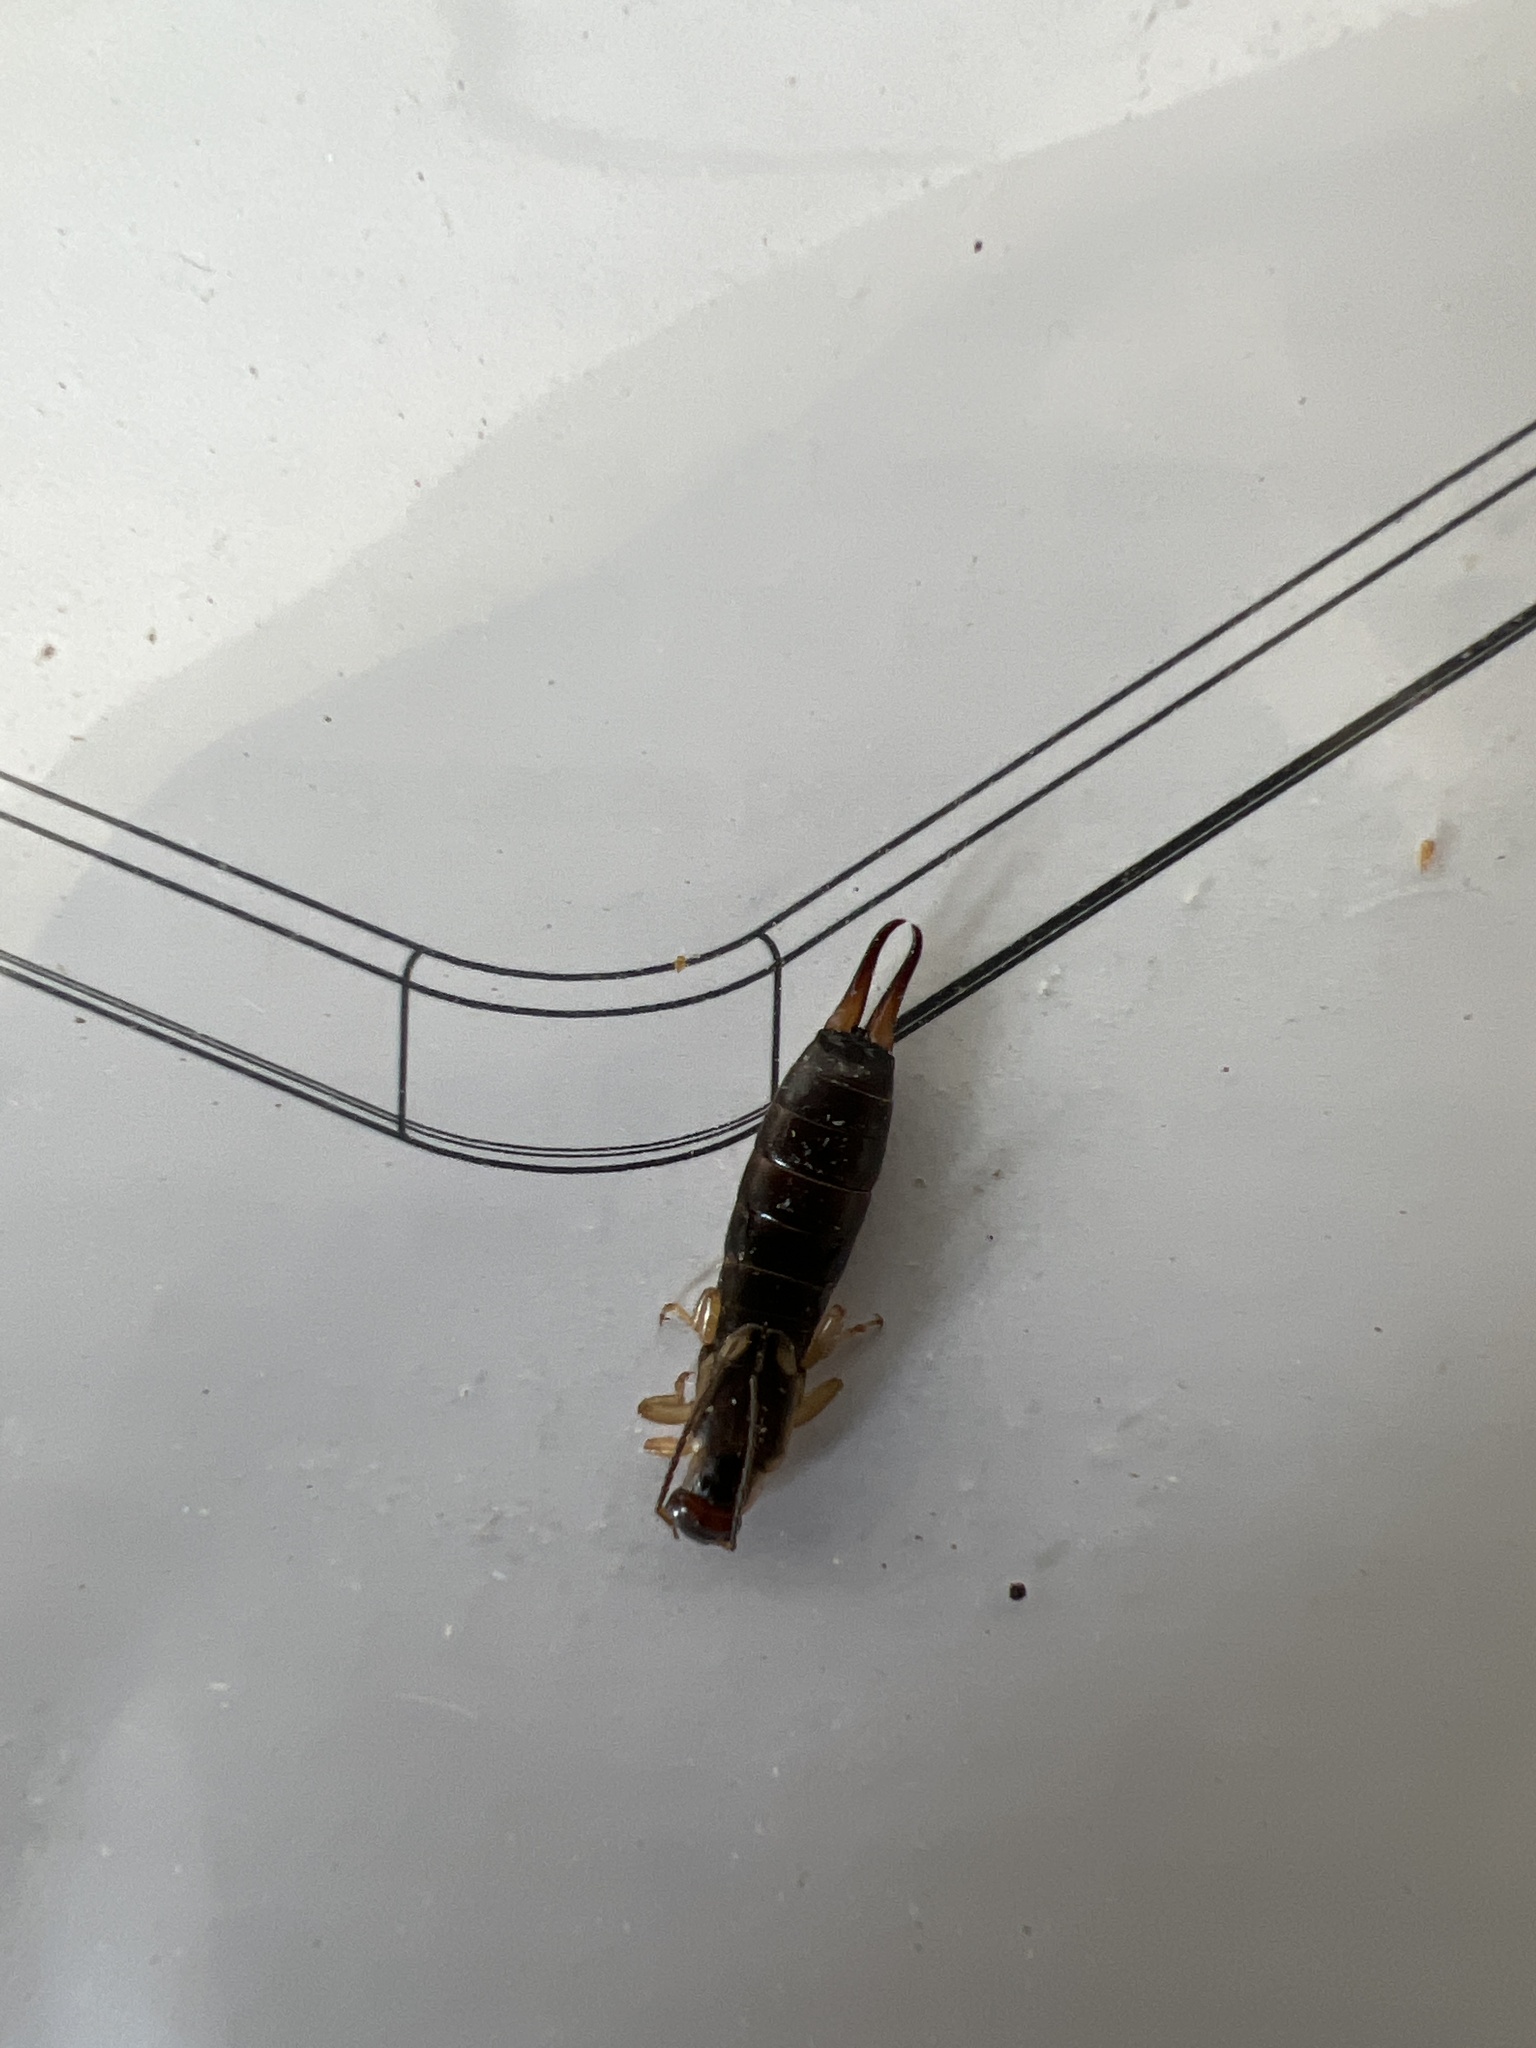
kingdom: Animalia
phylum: Arthropoda
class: Insecta
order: Dermaptera
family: Forficulidae
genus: Forficula
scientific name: Forficula
